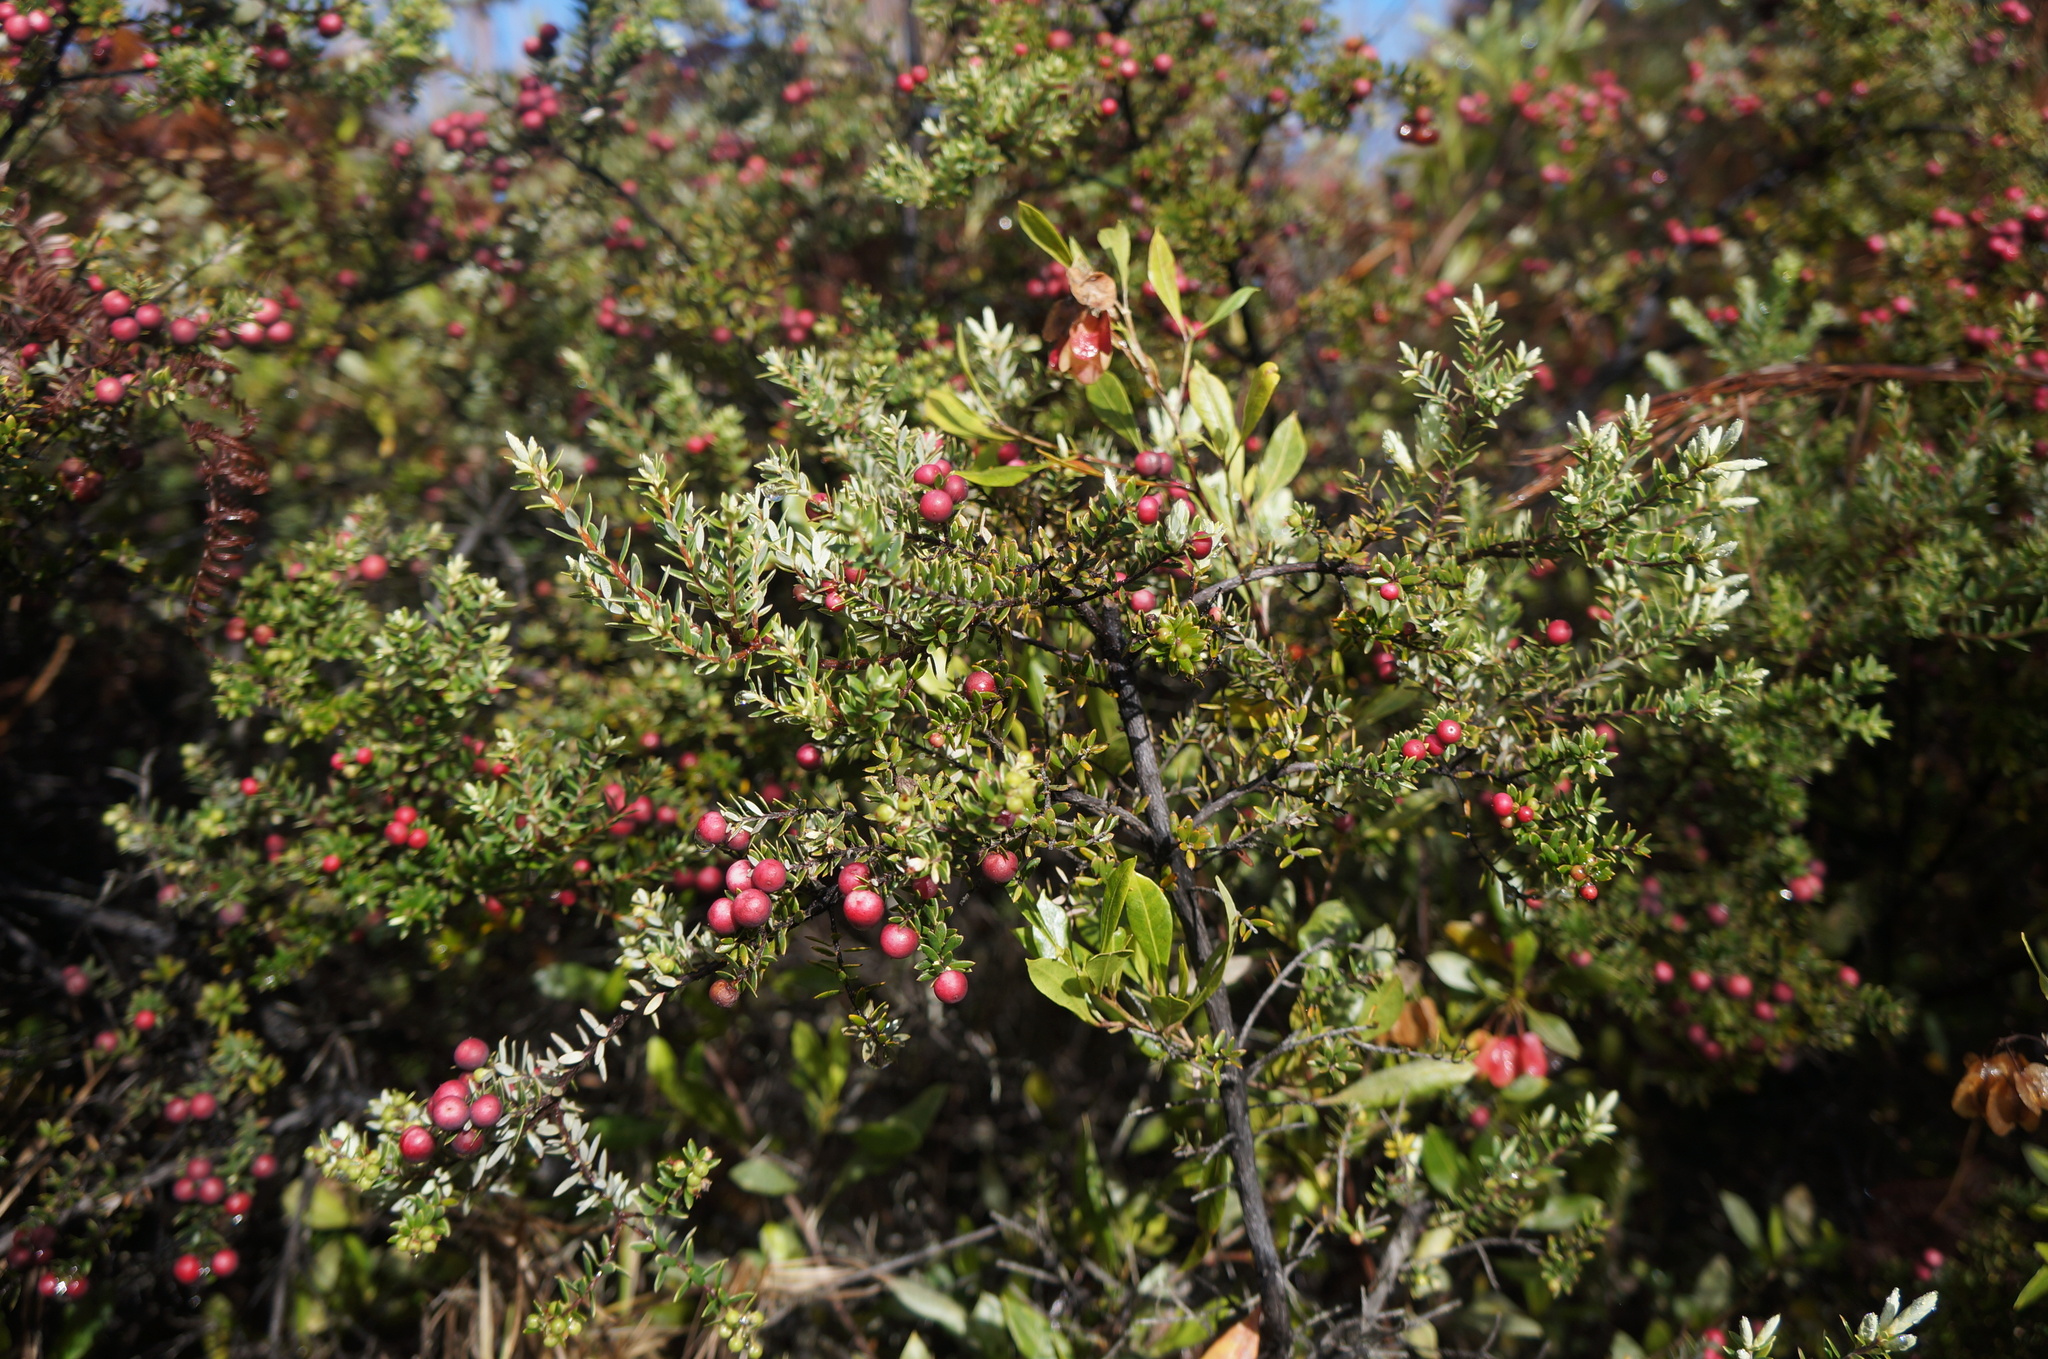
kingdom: Plantae
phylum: Tracheophyta
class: Magnoliopsida
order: Ericales
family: Ericaceae
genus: Leptecophylla
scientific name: Leptecophylla tameiameiae
